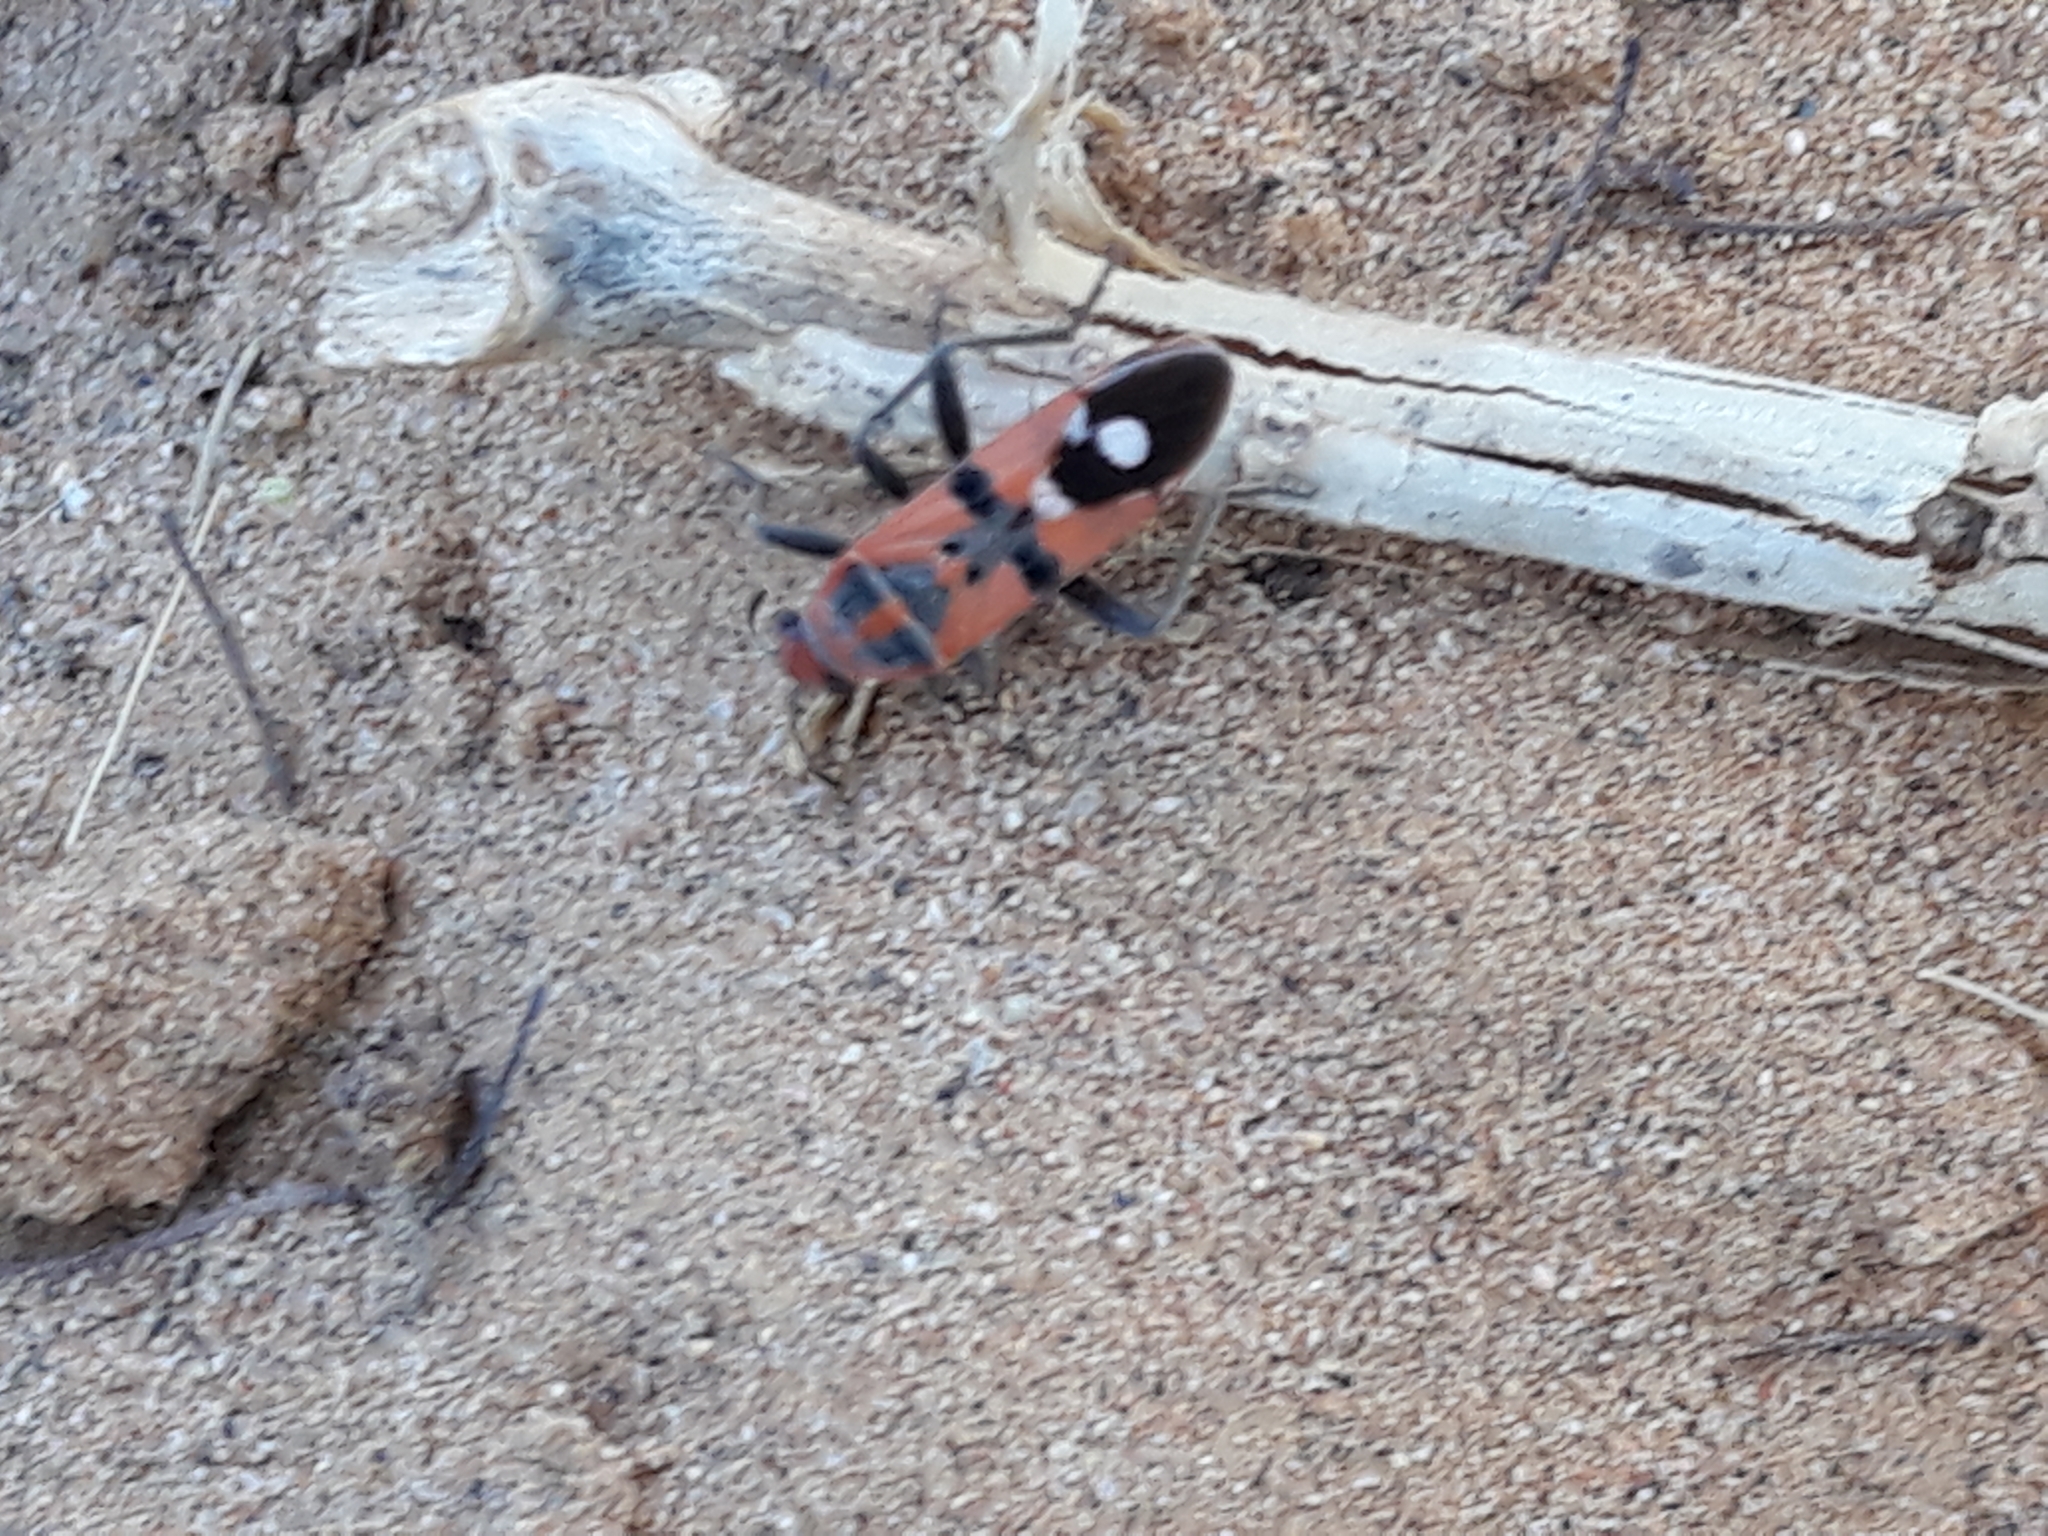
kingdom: Animalia
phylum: Arthropoda
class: Insecta
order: Hemiptera
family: Lygaeidae
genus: Spilostethus
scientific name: Spilostethus longulus
